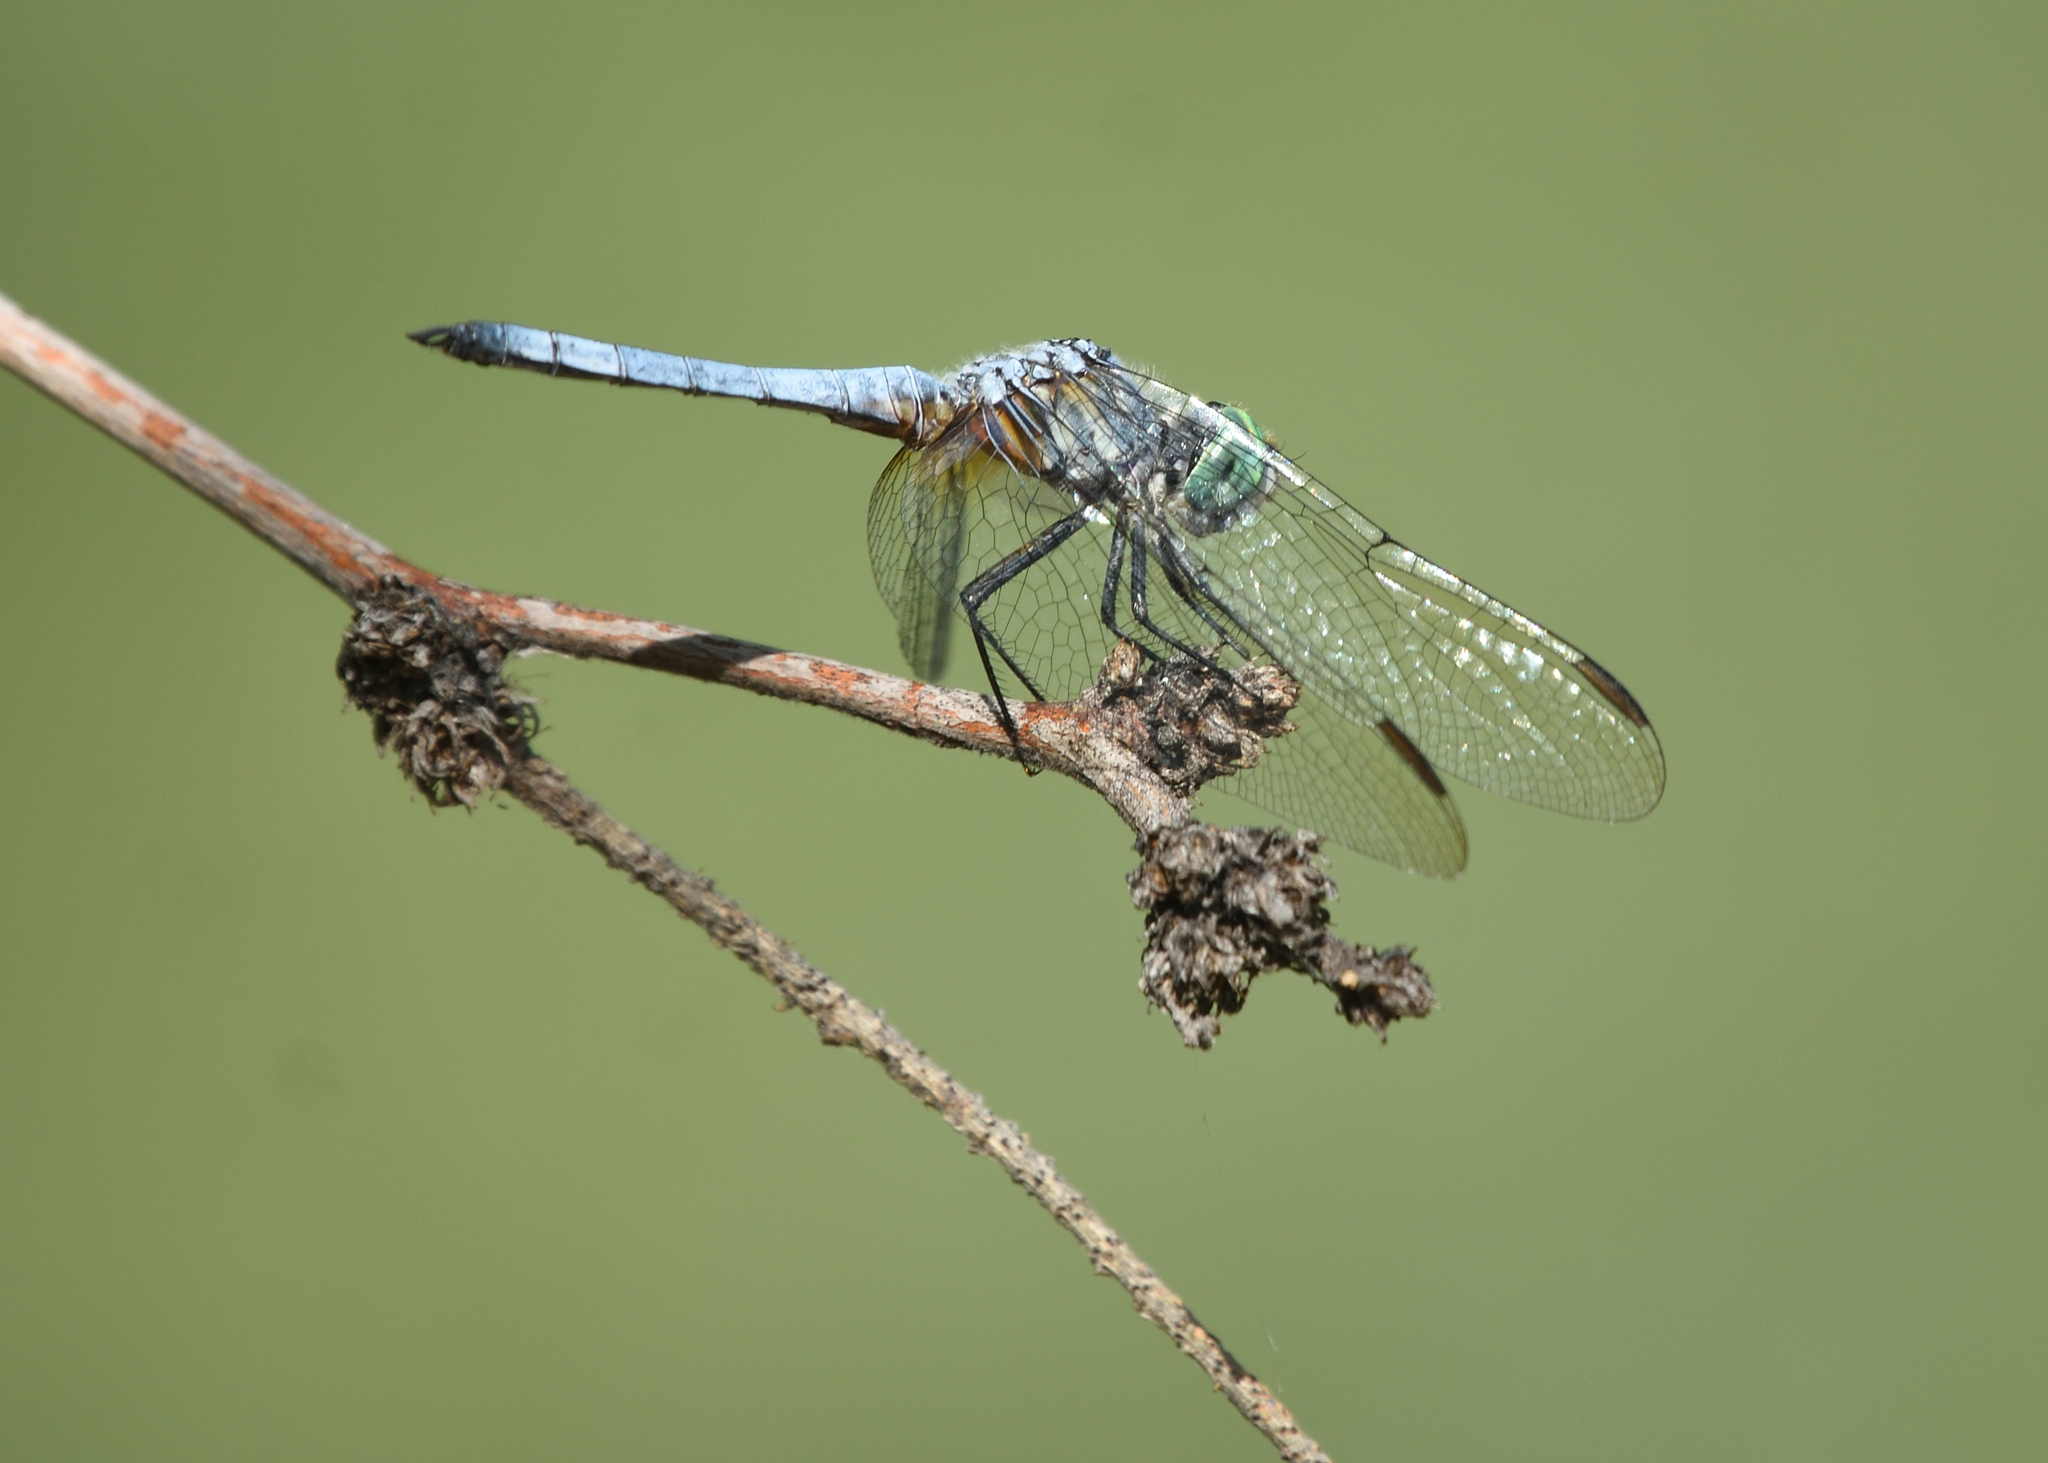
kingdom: Animalia
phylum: Arthropoda
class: Insecta
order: Odonata
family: Libellulidae
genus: Pachydiplax
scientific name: Pachydiplax longipennis
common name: Blue dasher
